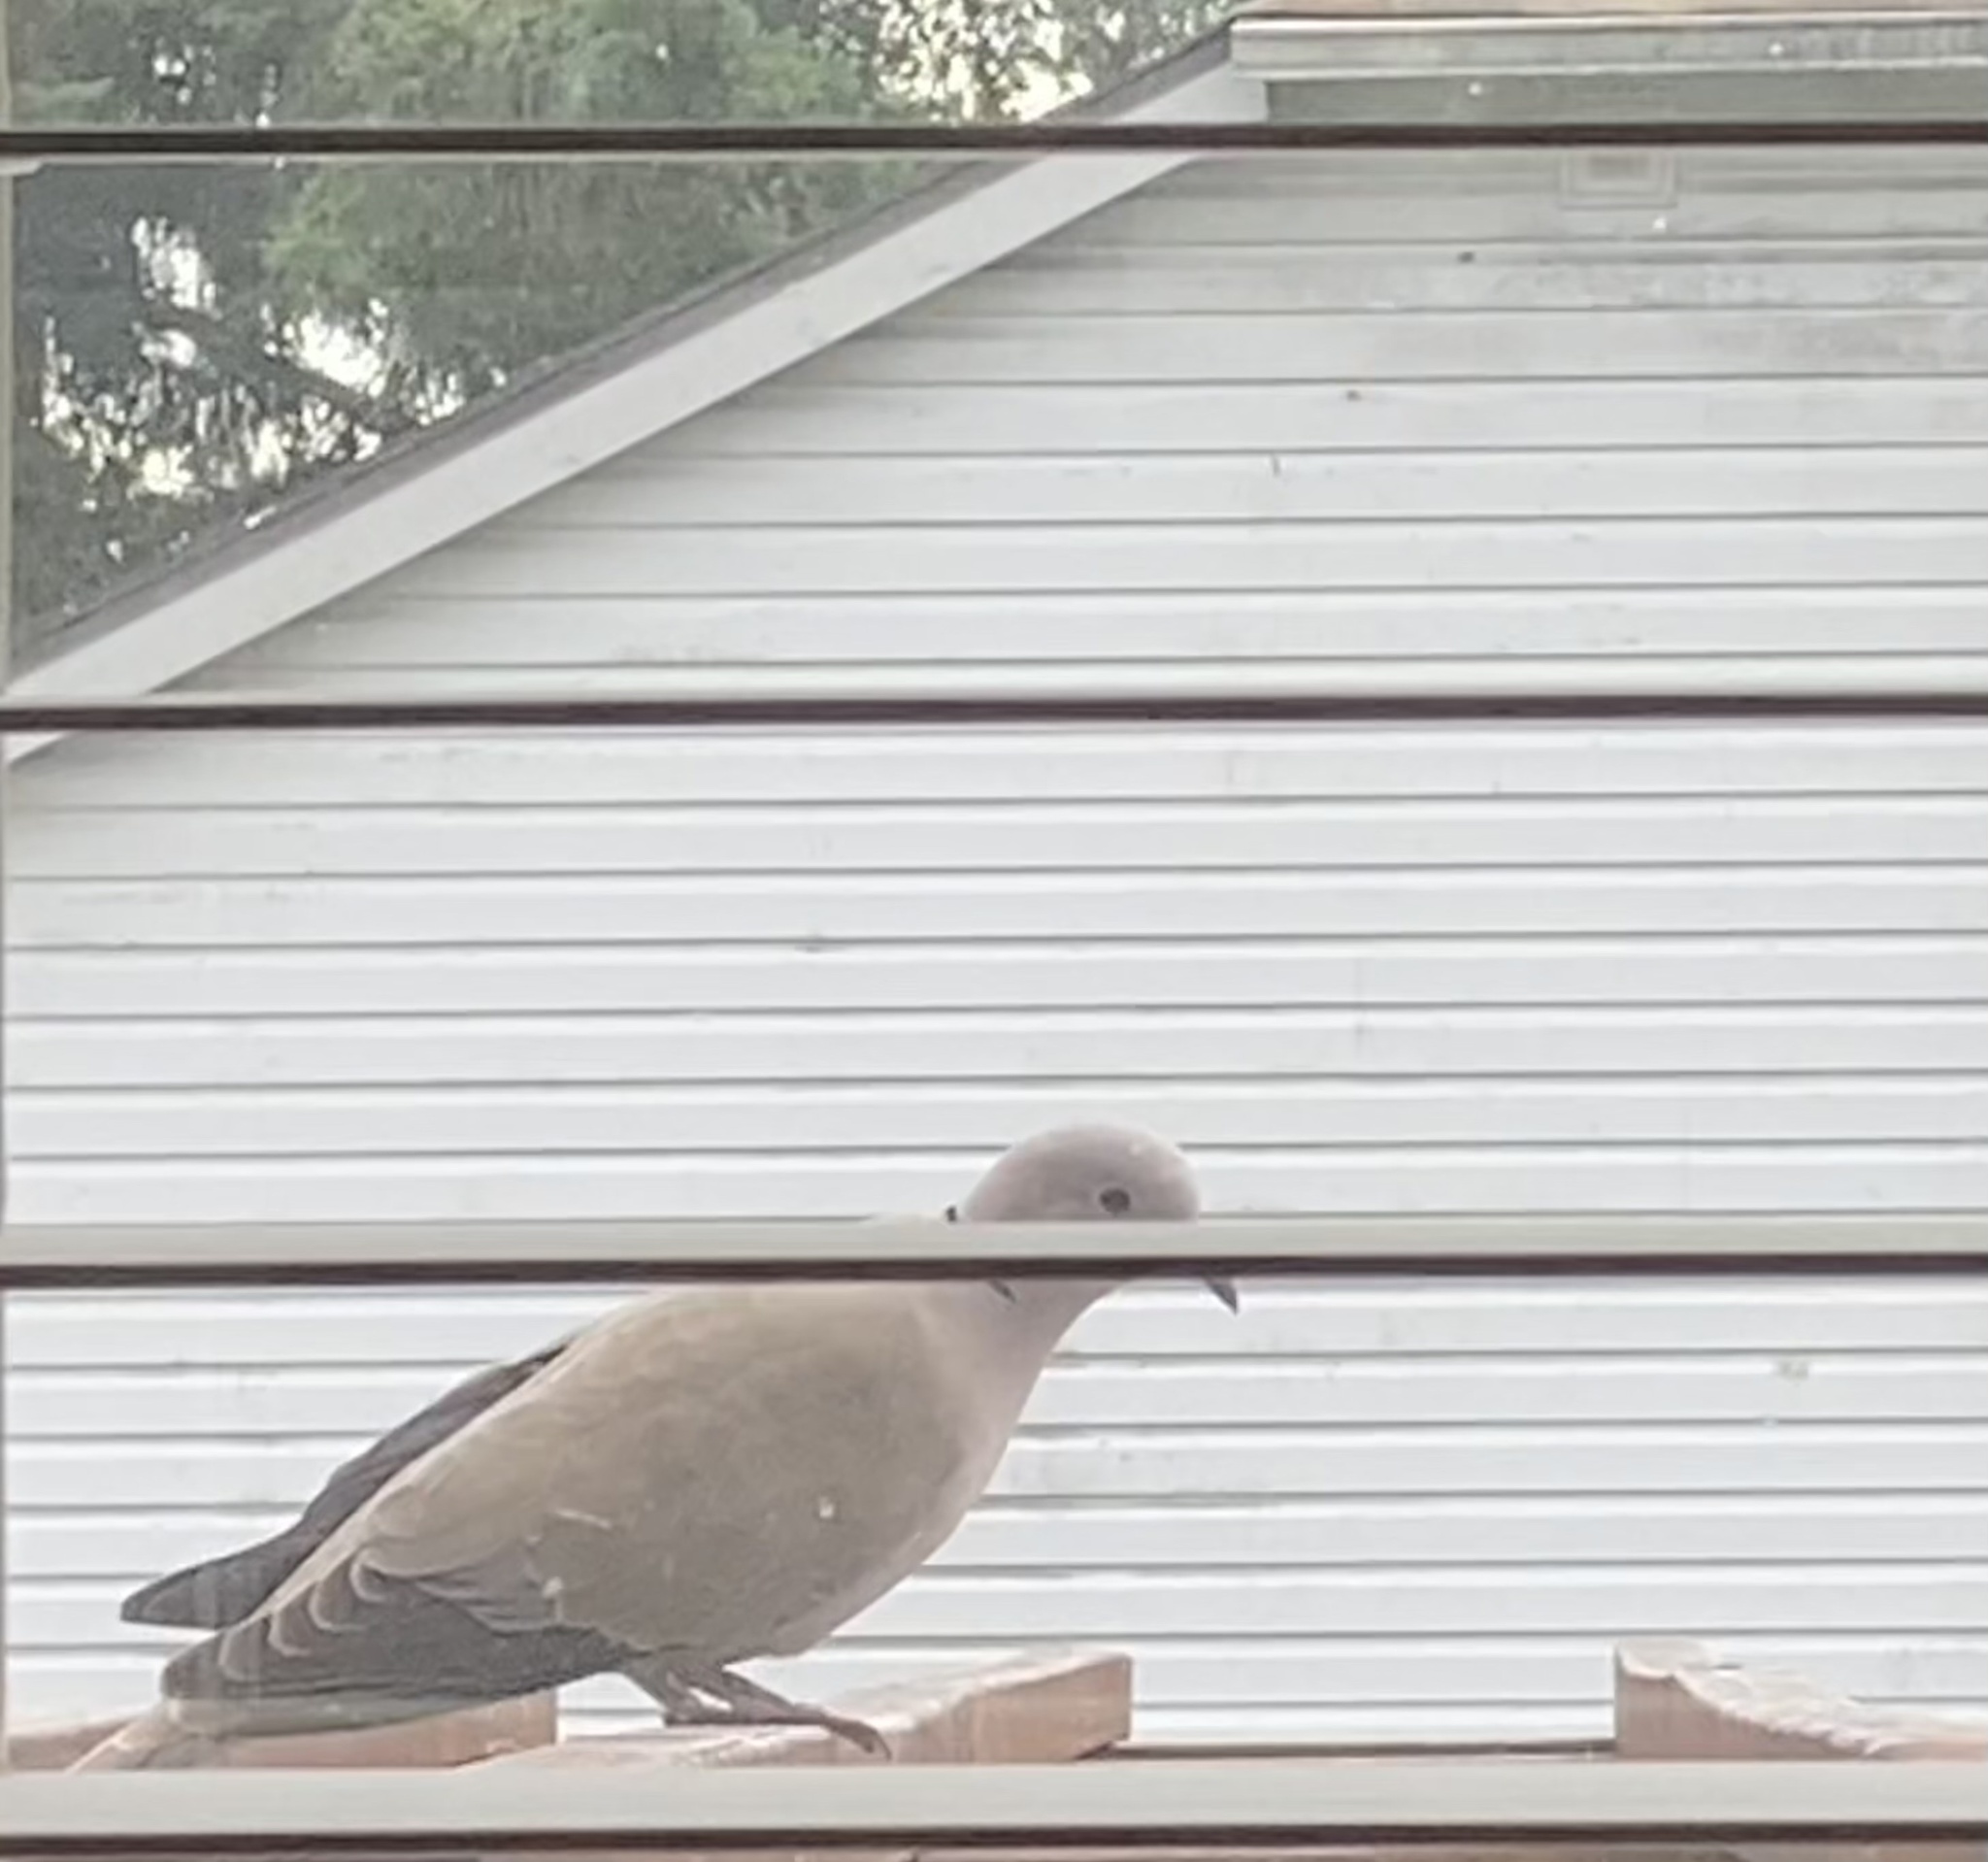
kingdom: Animalia
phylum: Chordata
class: Aves
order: Columbiformes
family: Columbidae
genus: Streptopelia
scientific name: Streptopelia decaocto
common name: Eurasian collared dove
